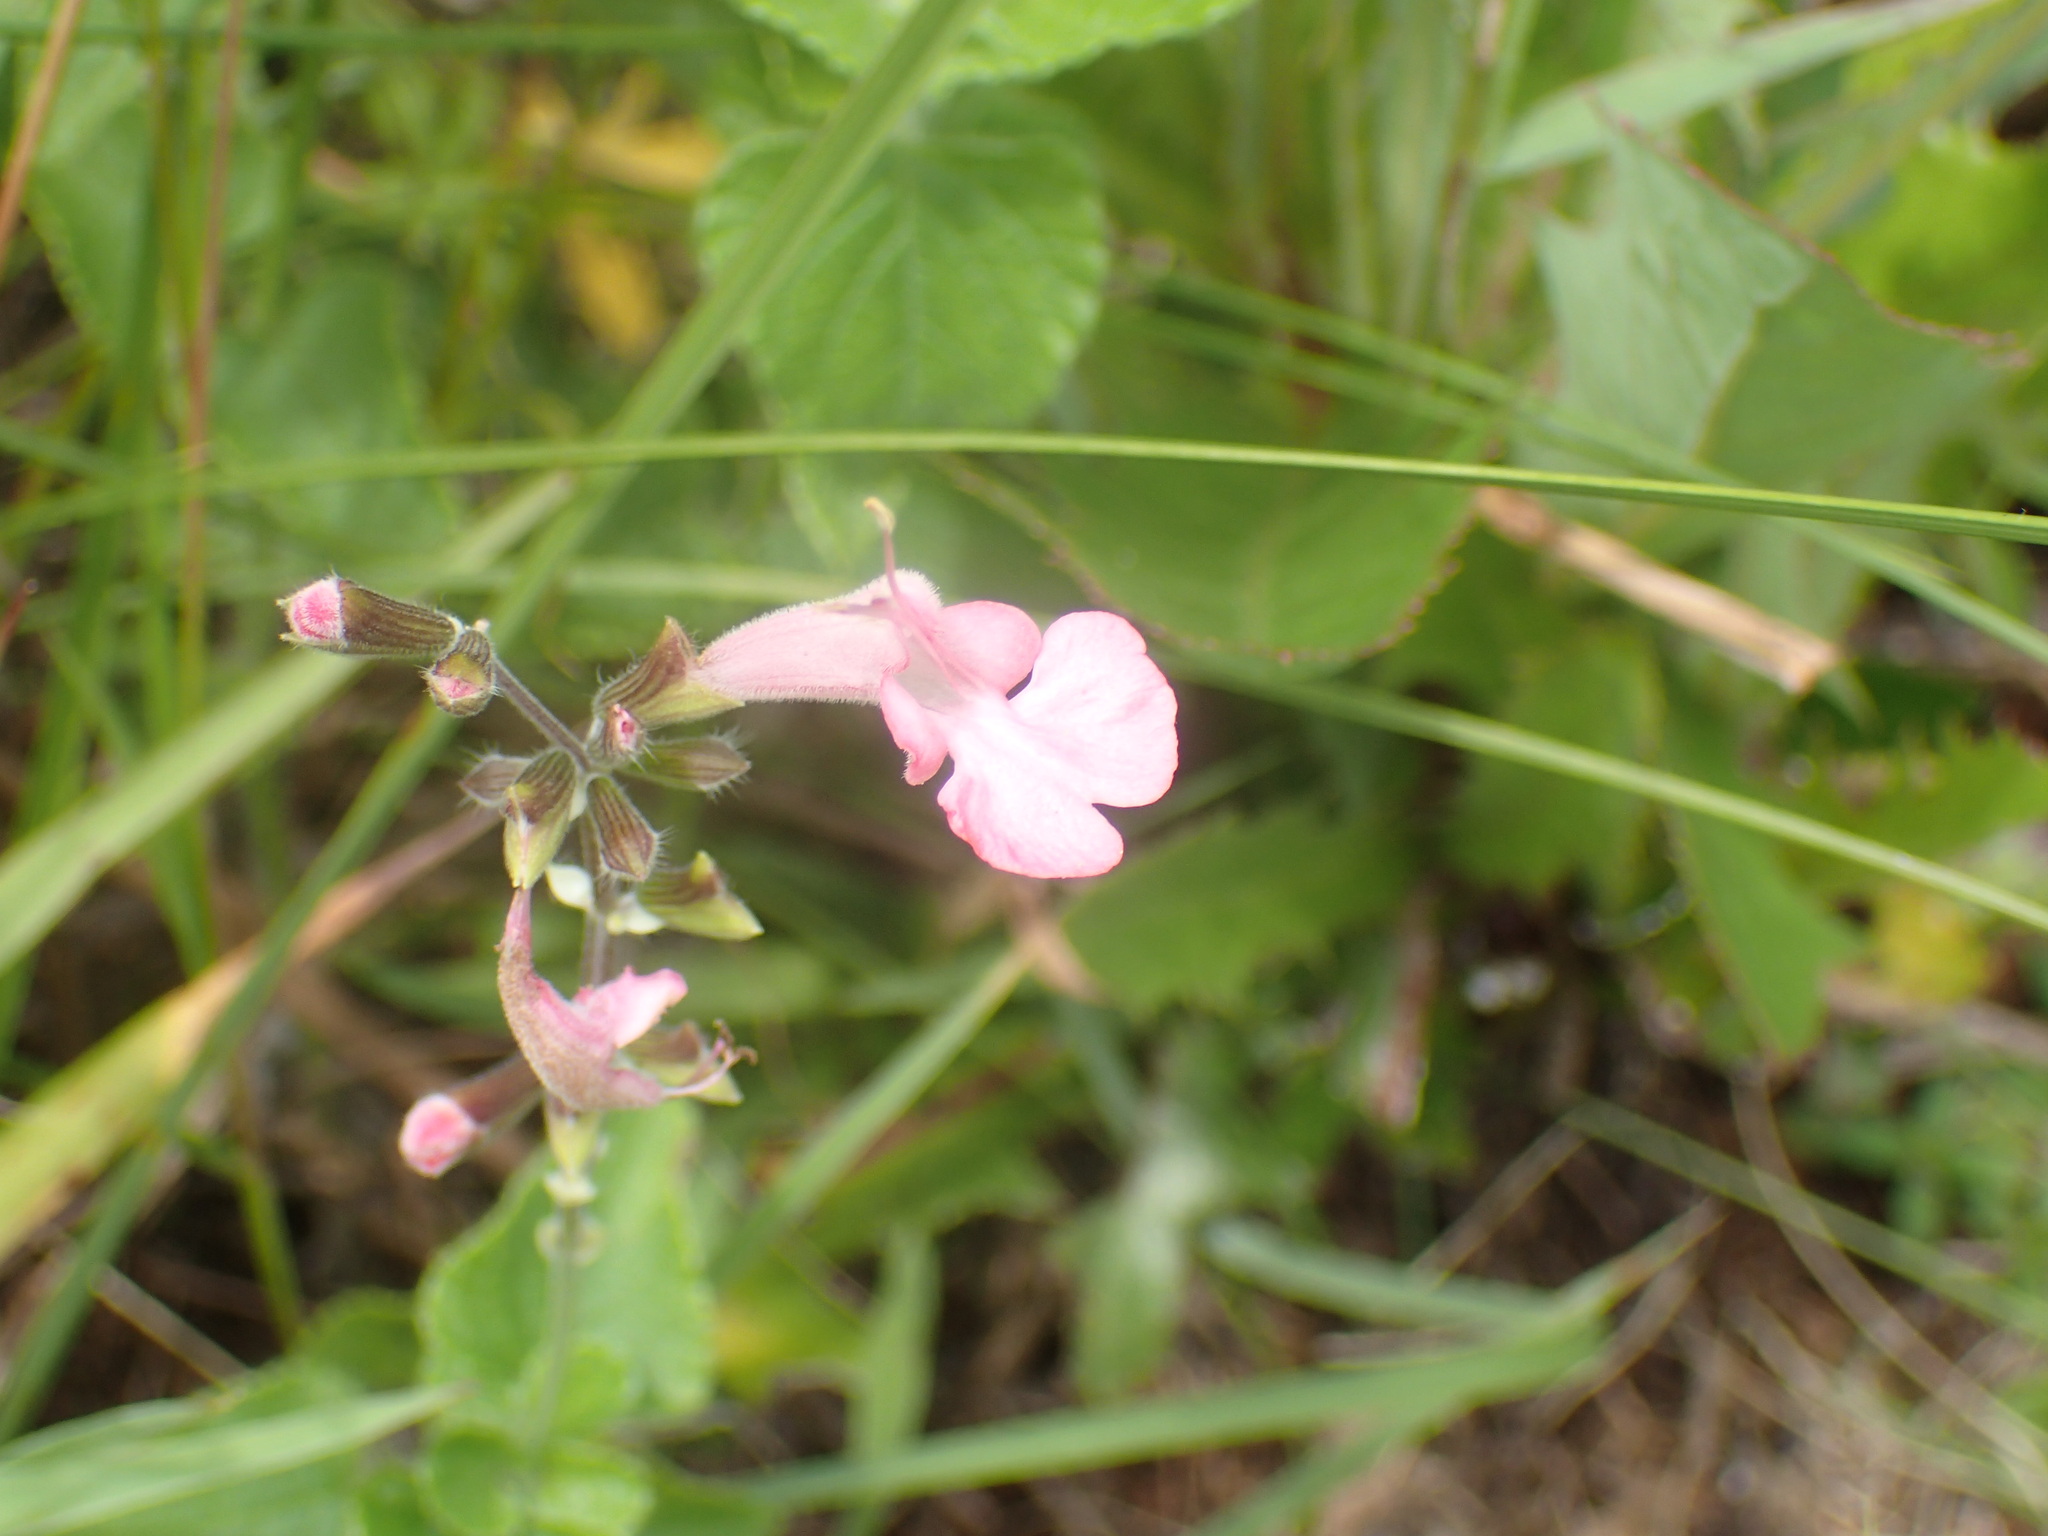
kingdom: Plantae
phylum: Tracheophyta
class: Magnoliopsida
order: Lamiales
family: Lamiaceae
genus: Salvia
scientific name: Salvia coccinea
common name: Blood sage
